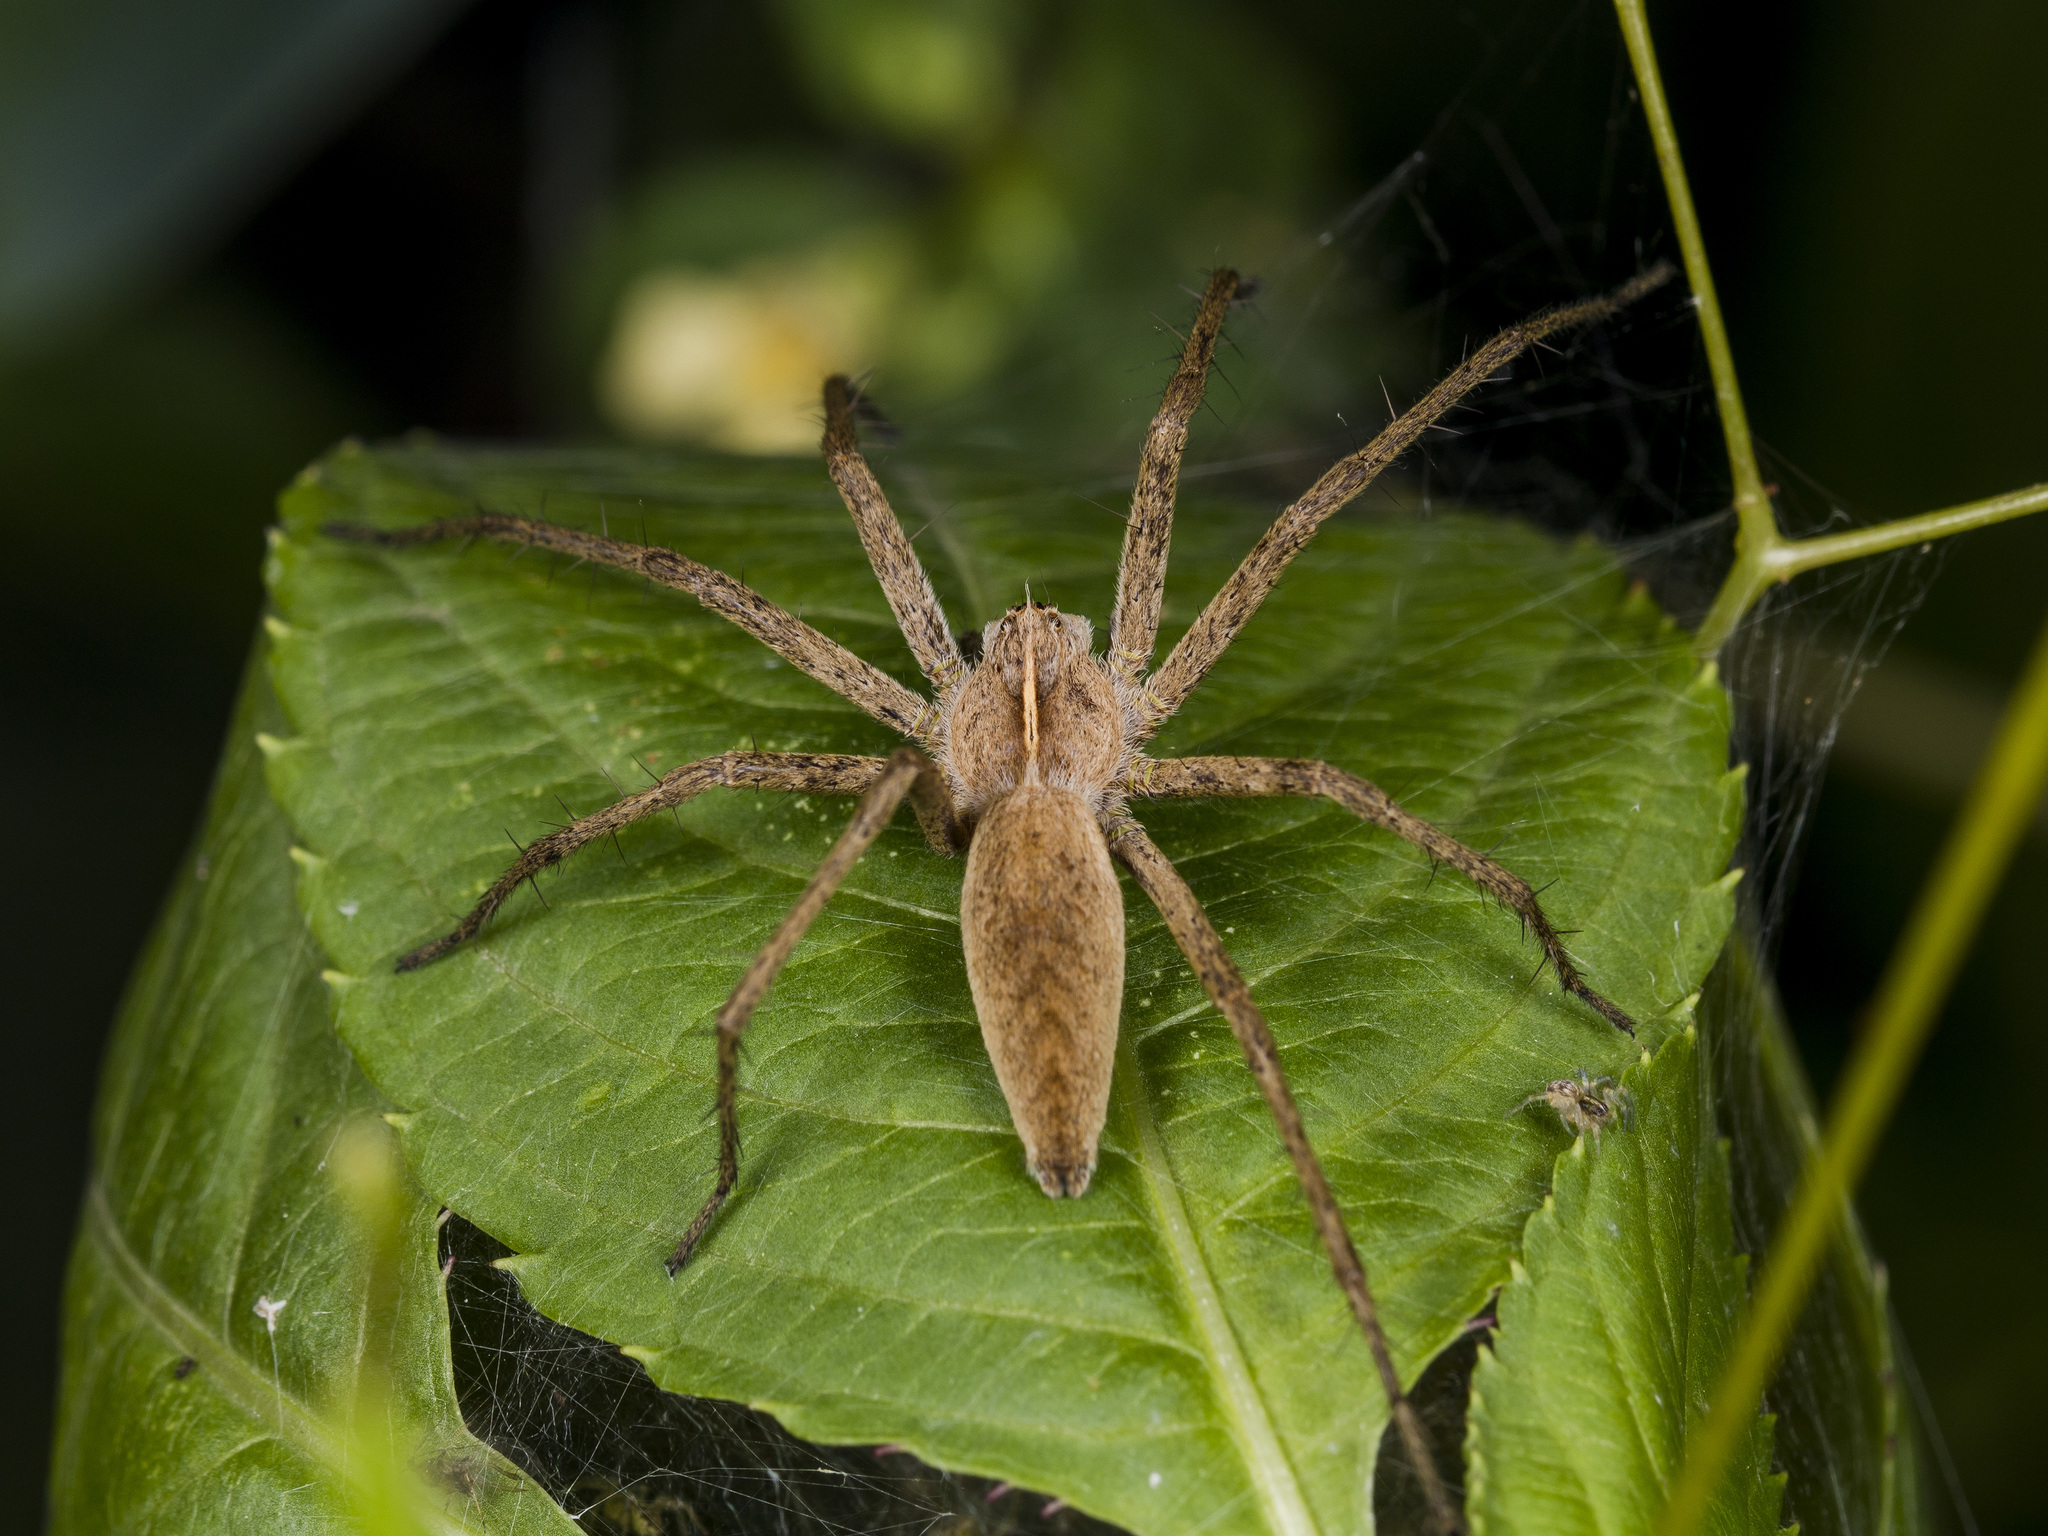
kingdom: Animalia
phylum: Arthropoda
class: Arachnida
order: Araneae
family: Pisauridae
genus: Pisaura
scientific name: Pisaura mirabilis
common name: Tent spider
